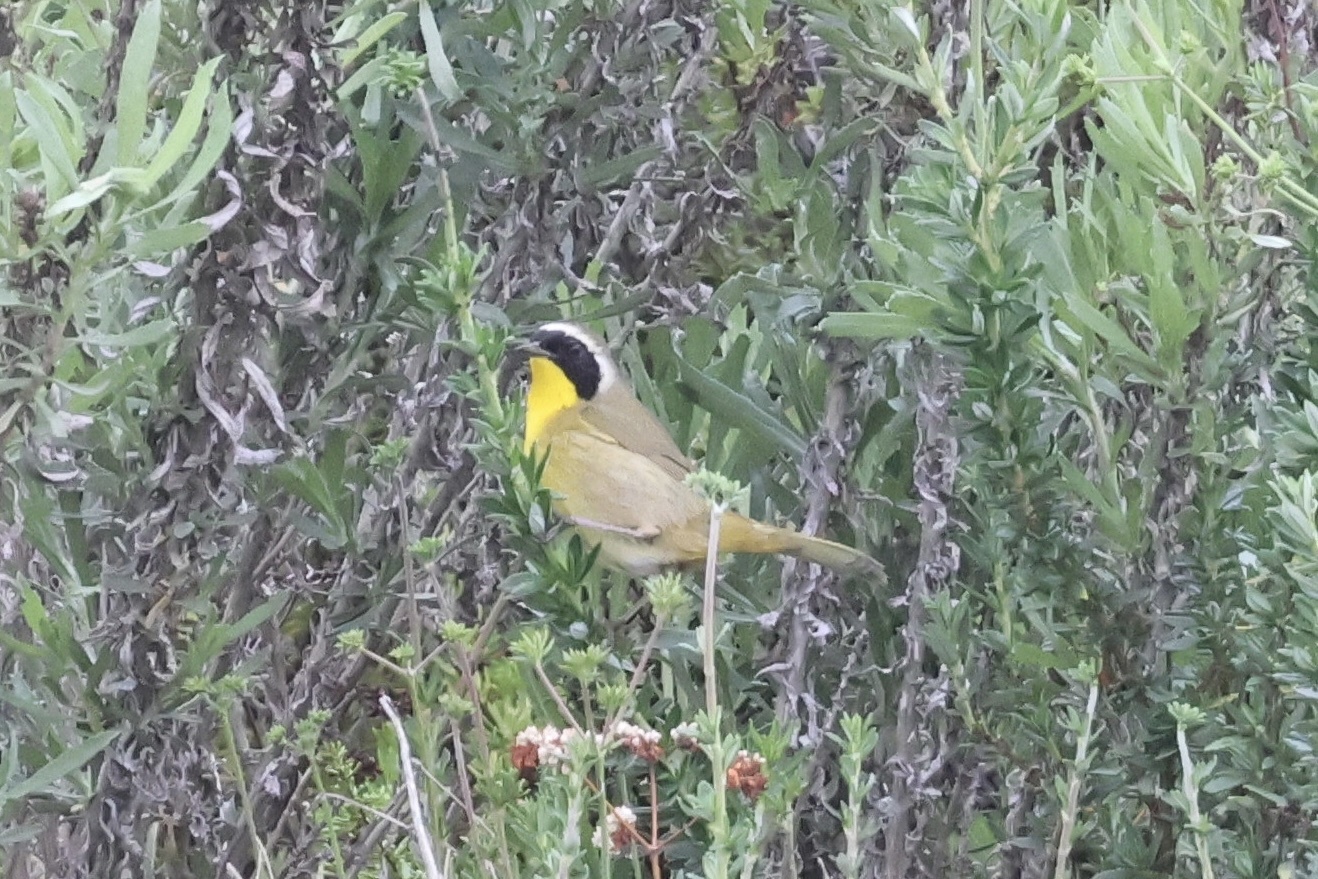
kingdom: Animalia
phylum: Chordata
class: Aves
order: Passeriformes
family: Parulidae
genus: Geothlypis
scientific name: Geothlypis trichas
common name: Common yellowthroat
